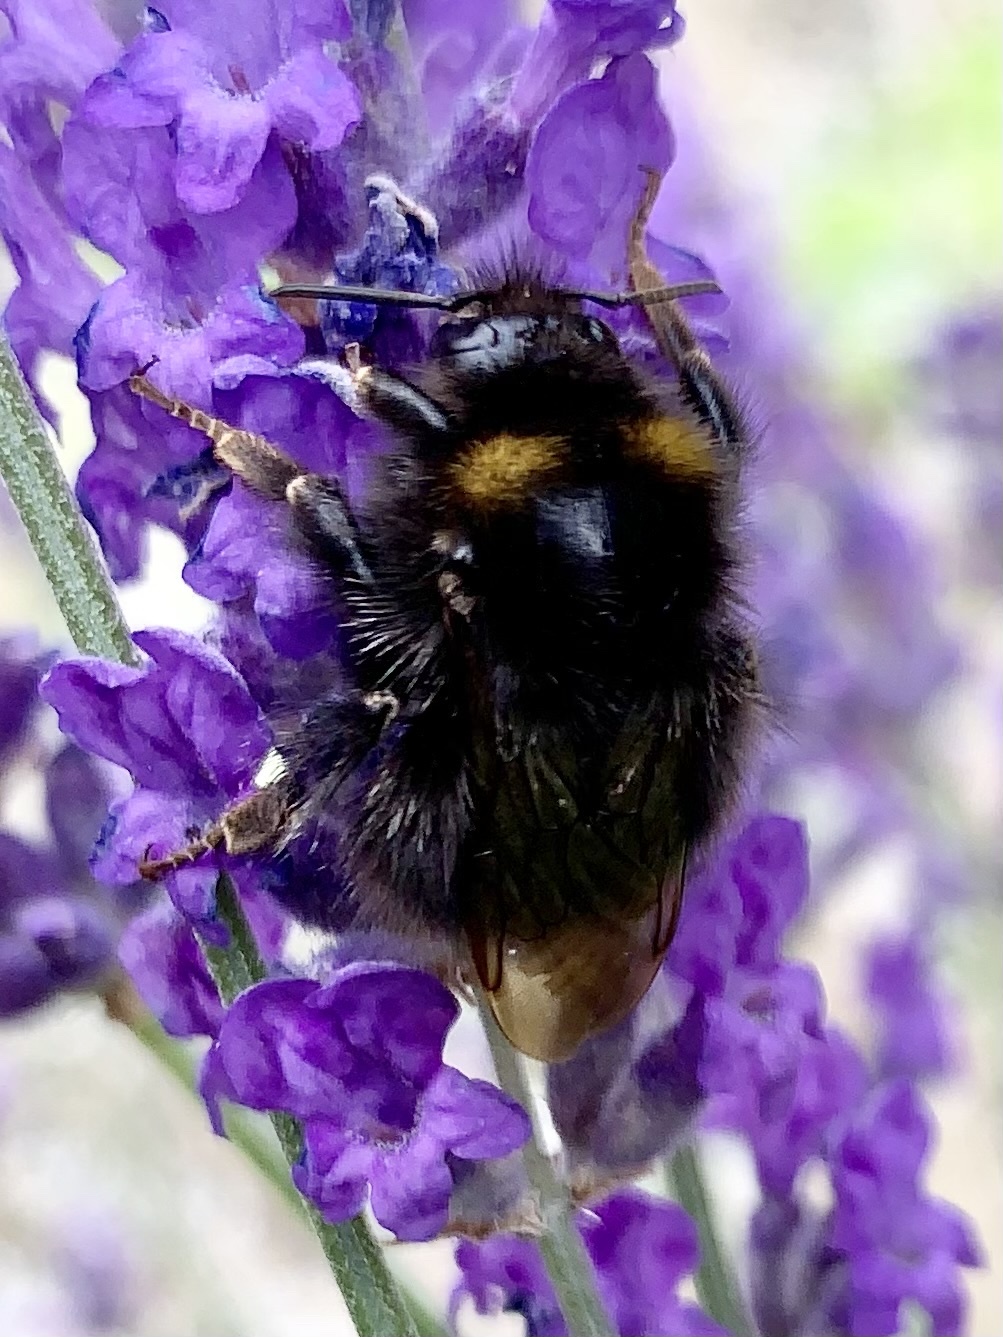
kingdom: Animalia
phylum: Arthropoda
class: Insecta
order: Hymenoptera
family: Apidae
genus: Bombus
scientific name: Bombus pratorum
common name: Early humble-bee
